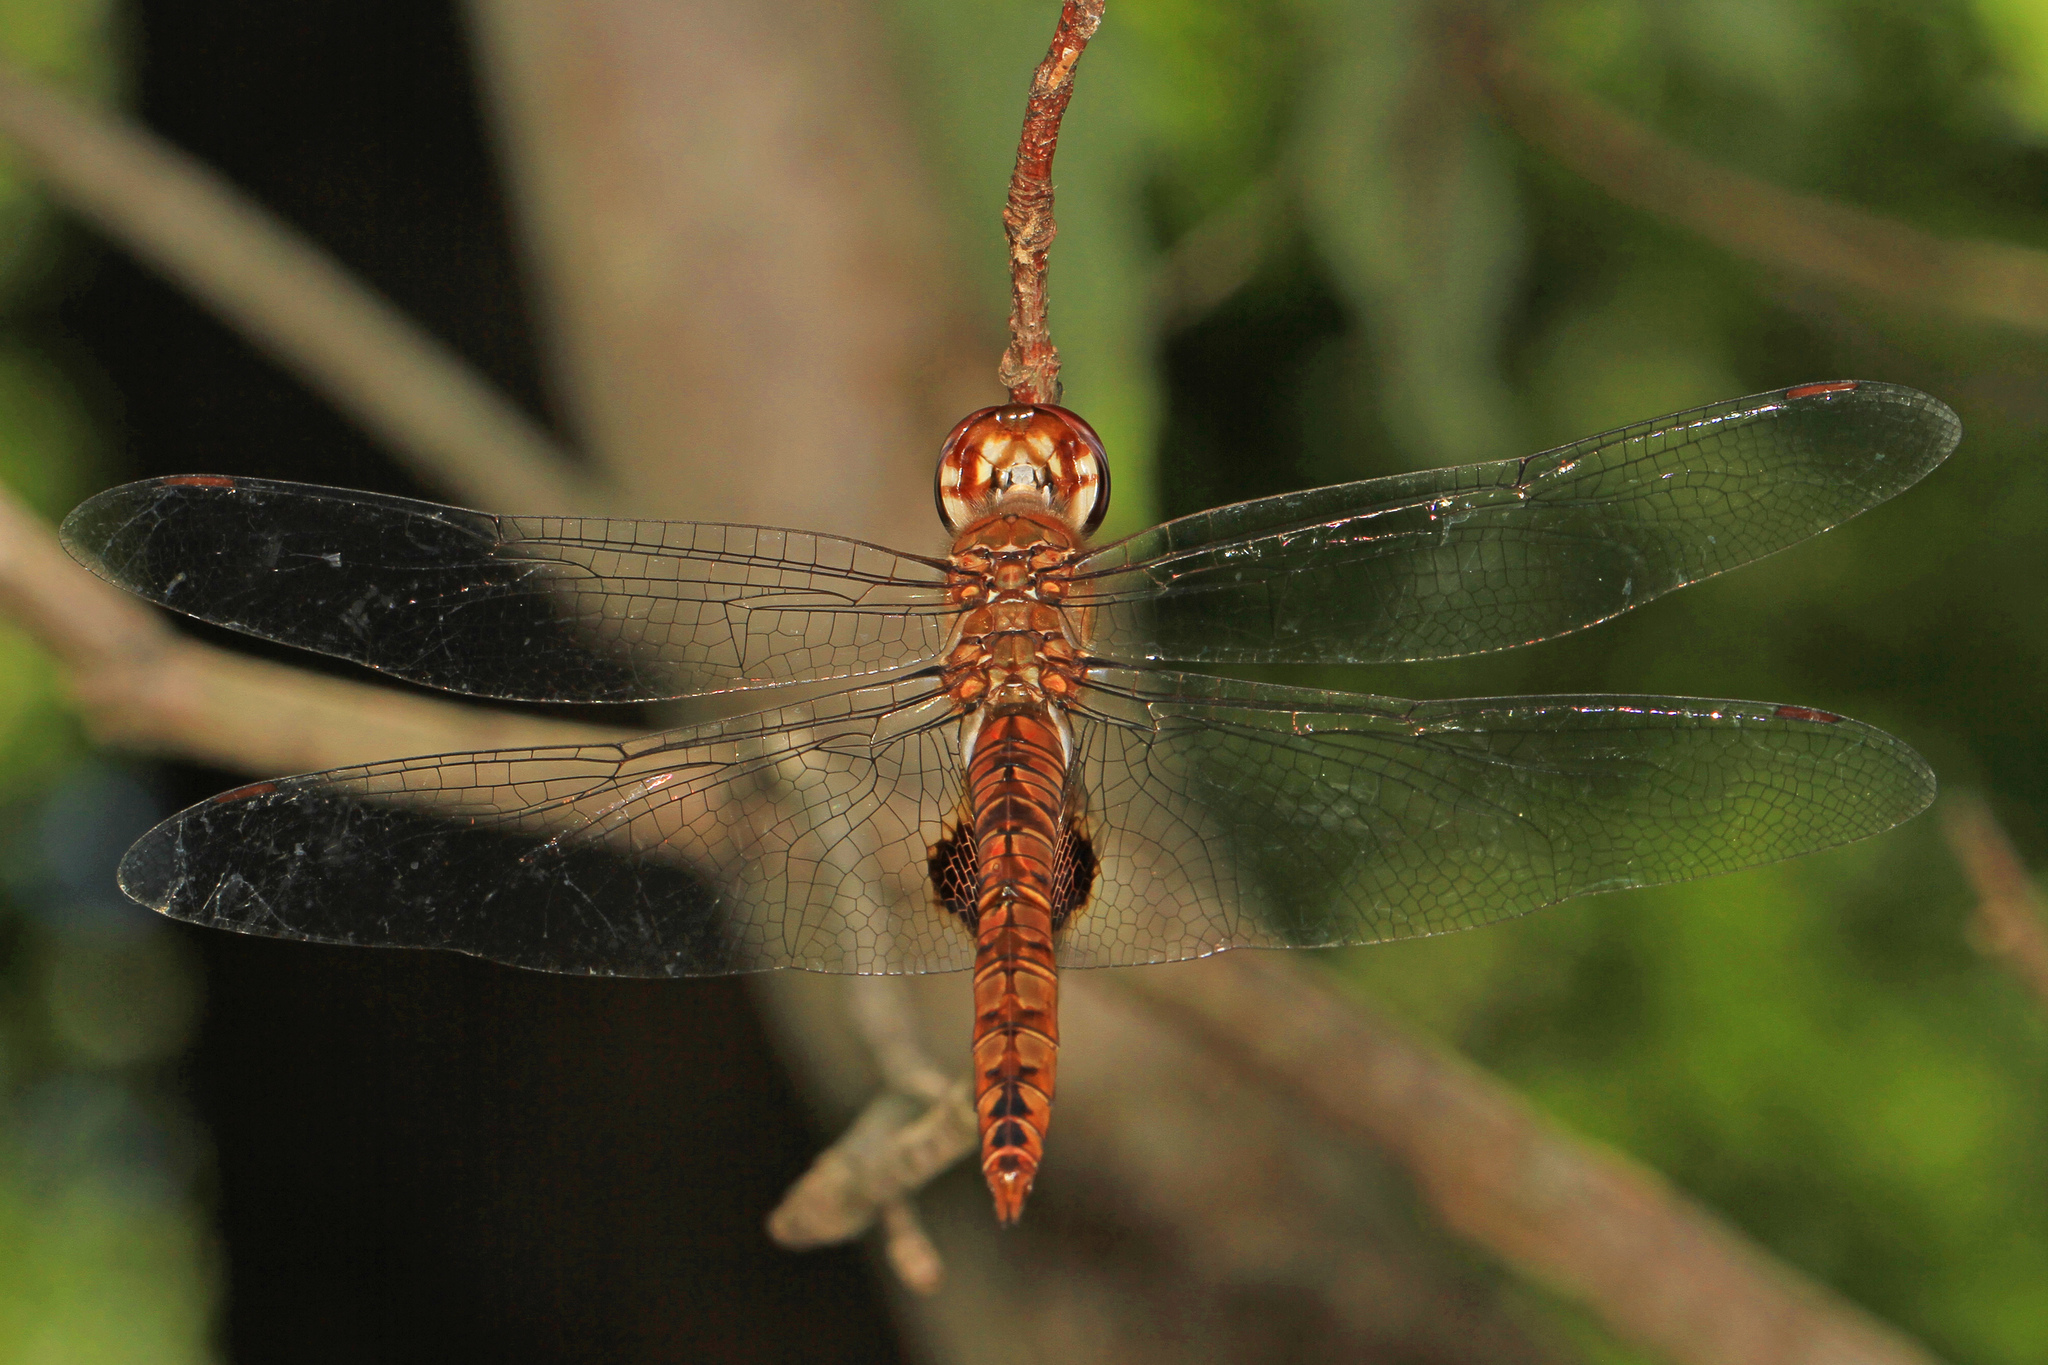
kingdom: Animalia
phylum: Arthropoda
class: Insecta
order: Odonata
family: Libellulidae
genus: Pantala
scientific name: Pantala hymenaea
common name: Spot-winged glider
